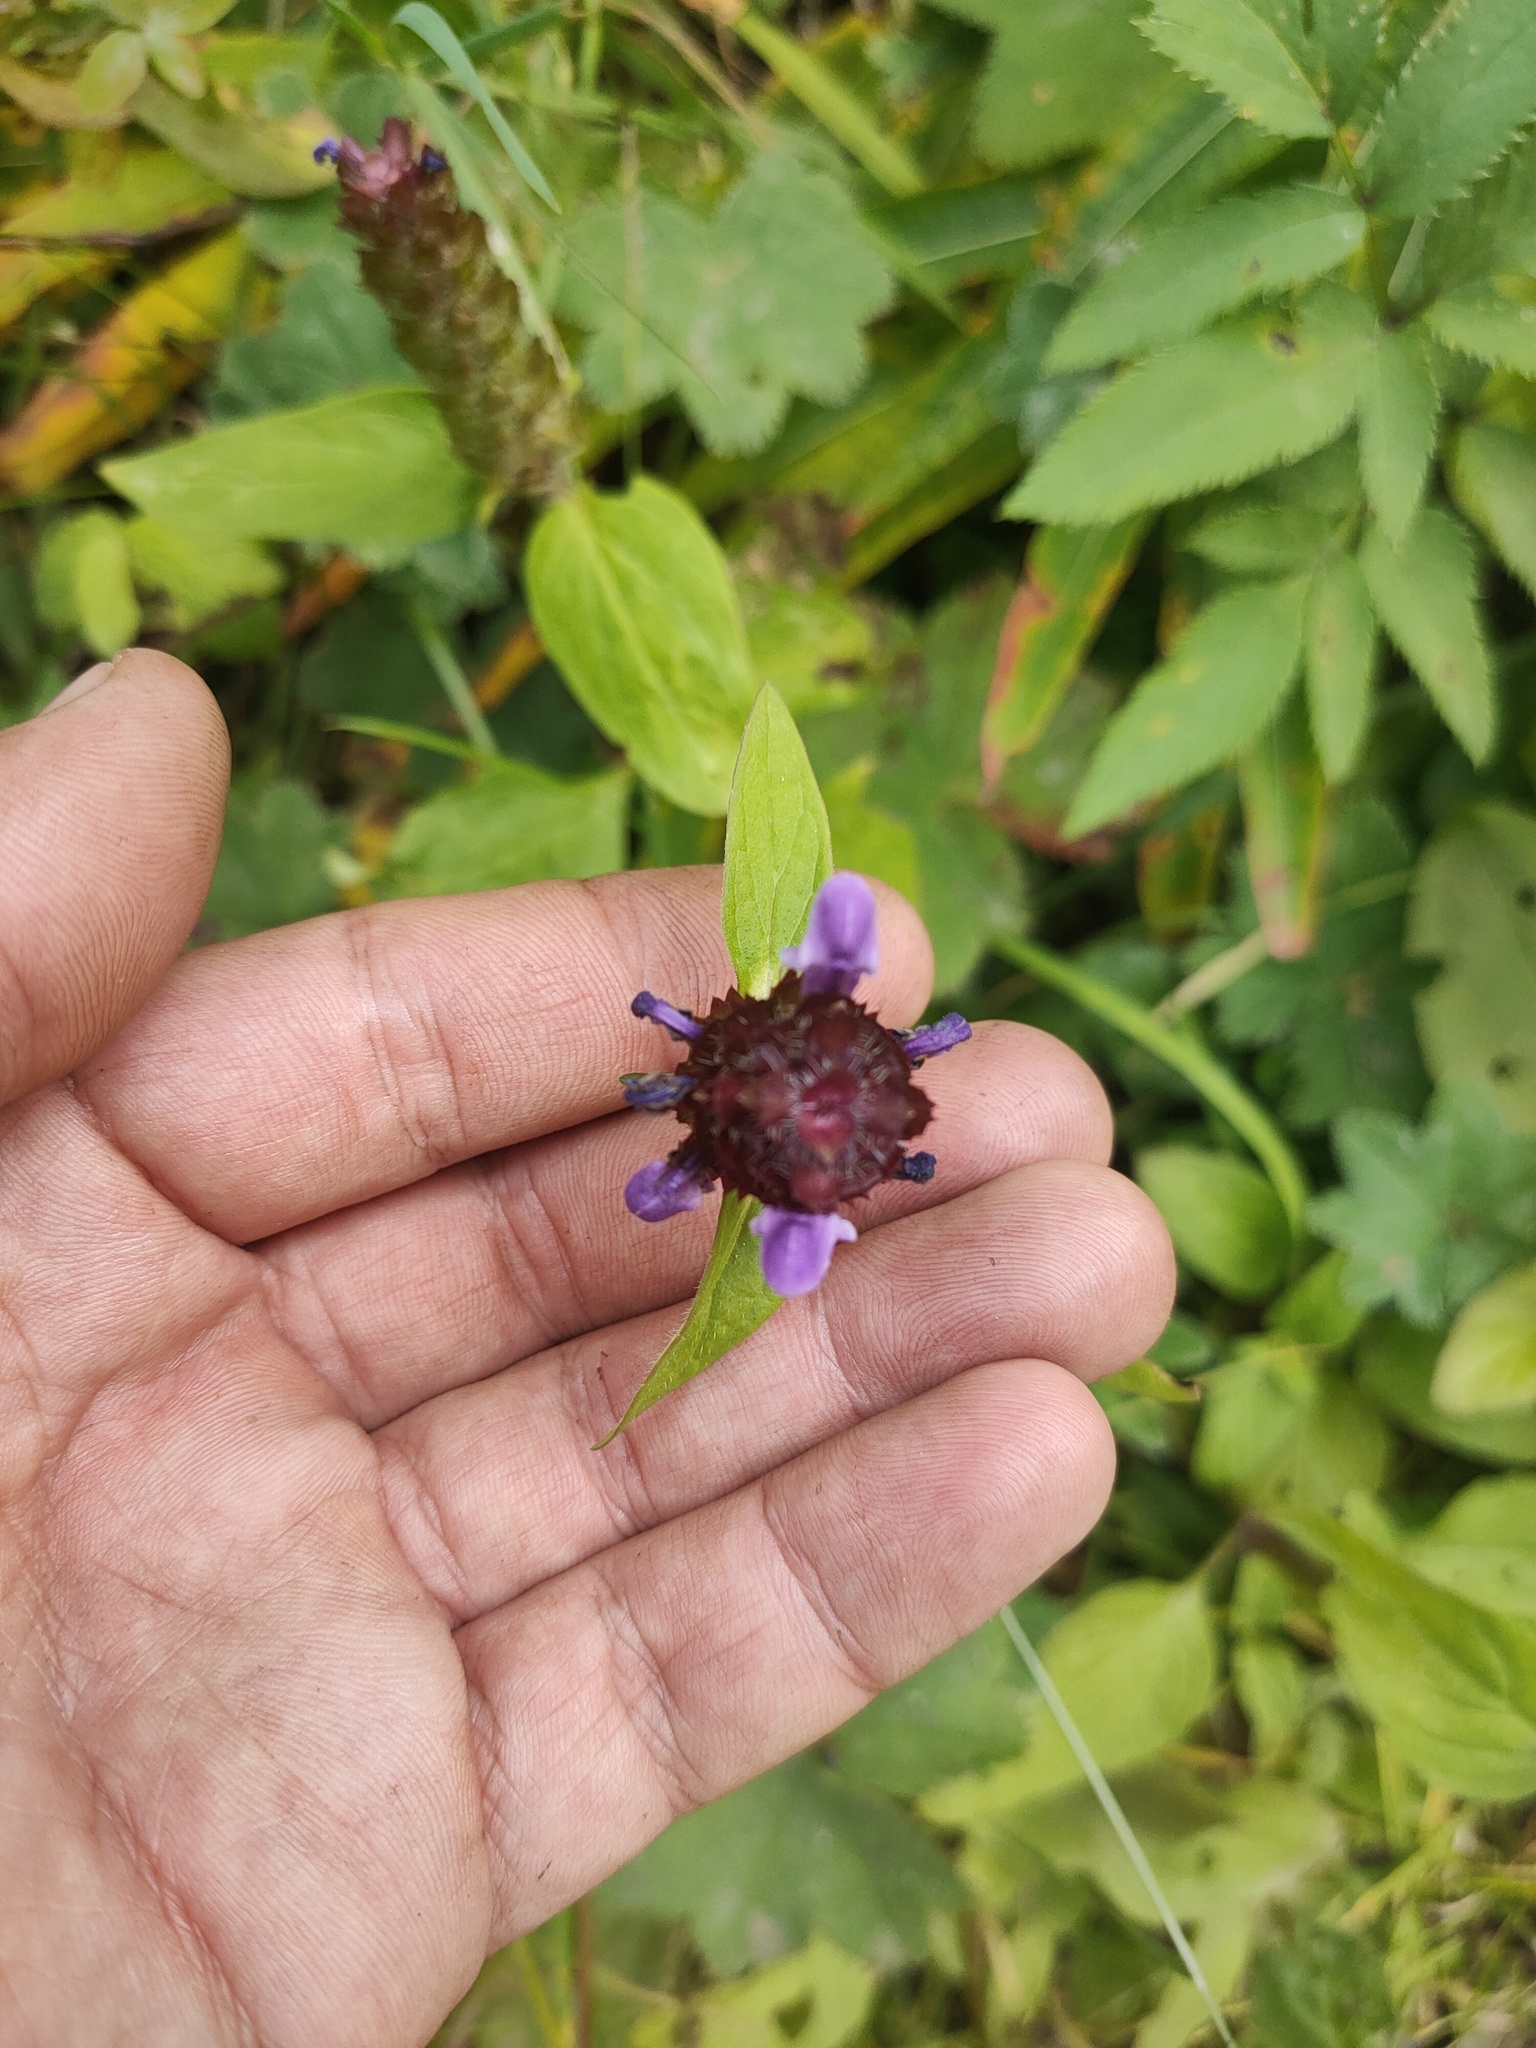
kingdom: Plantae
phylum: Tracheophyta
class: Magnoliopsida
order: Lamiales
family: Lamiaceae
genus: Prunella
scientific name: Prunella vulgaris
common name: Heal-all
